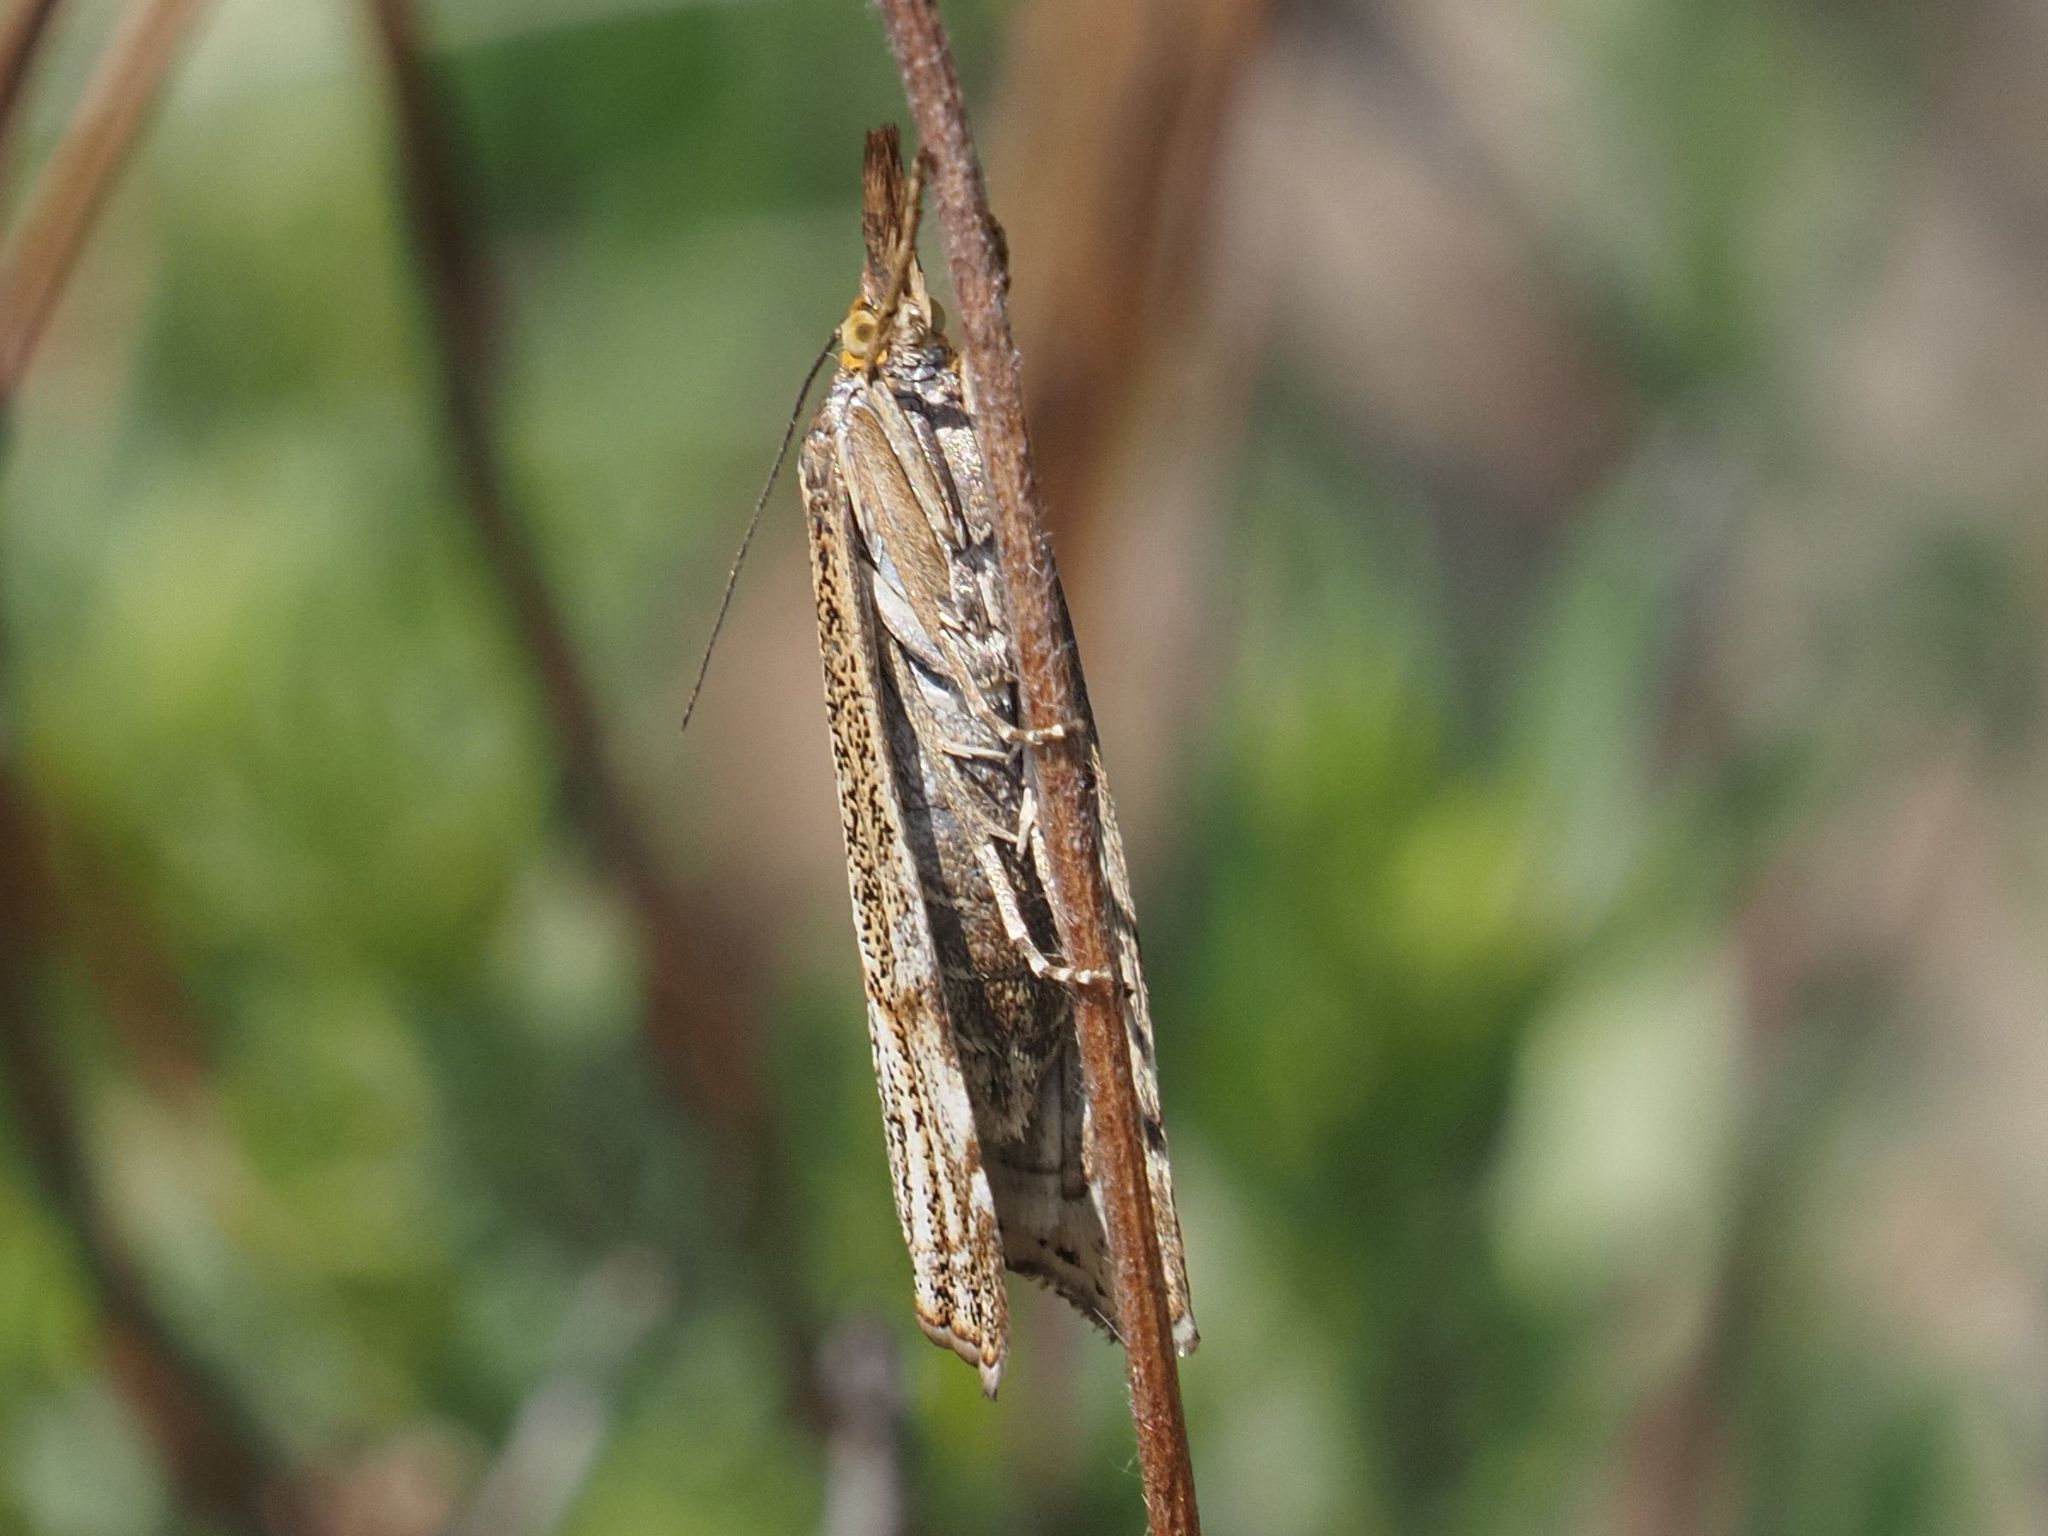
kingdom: Animalia
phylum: Arthropoda
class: Insecta
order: Lepidoptera
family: Crambidae
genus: Thisanotia
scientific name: Thisanotia chrysonuchella
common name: Powdered grass-veneer
